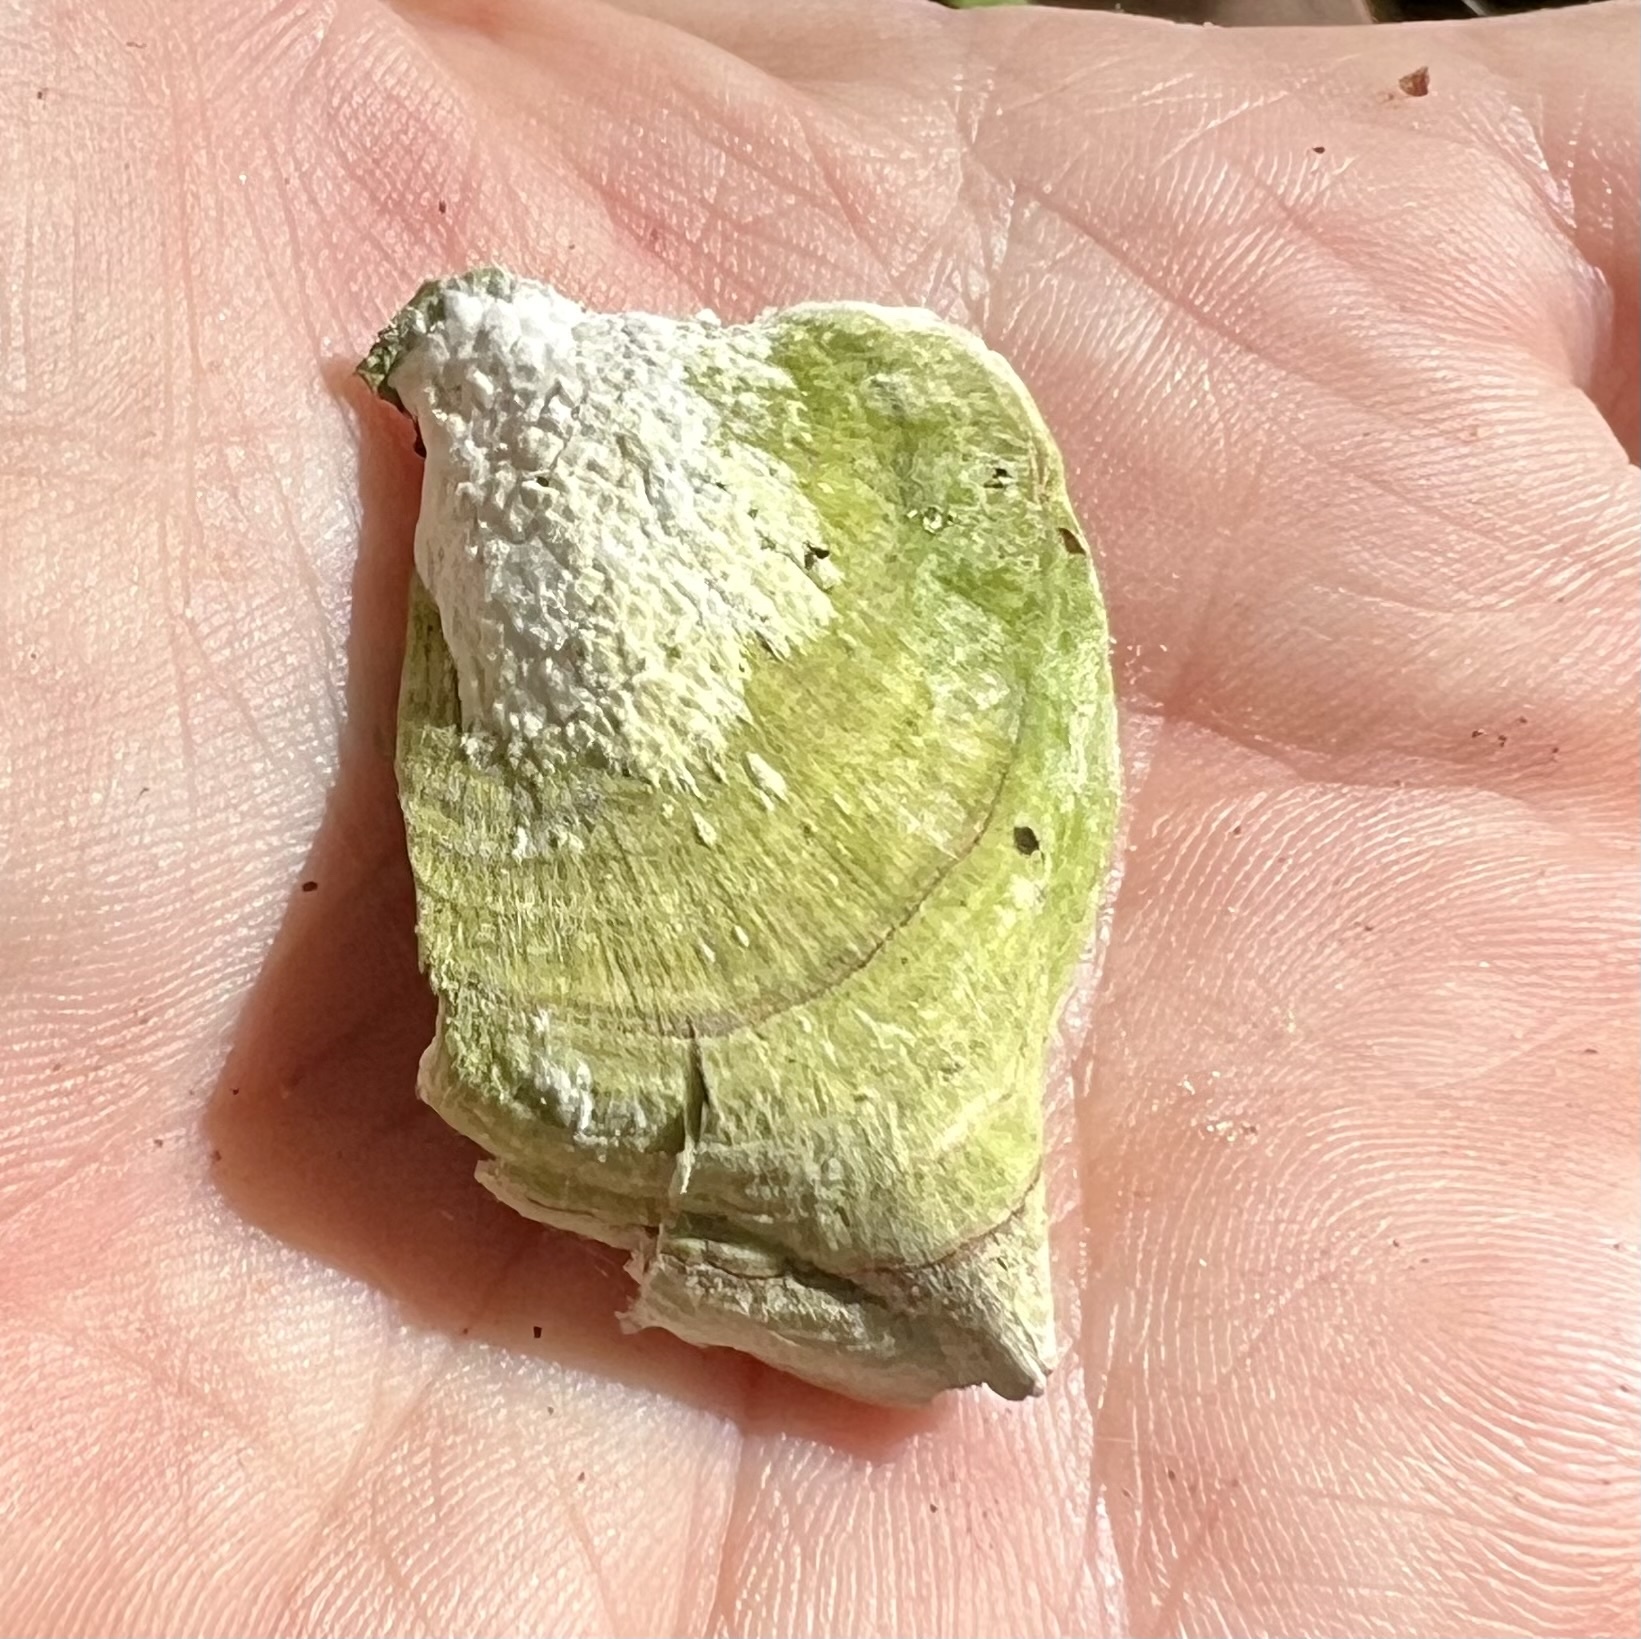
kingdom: Fungi
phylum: Basidiomycota
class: Agaricomycetes
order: Hymenochaetales
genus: Trichaptum
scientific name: Trichaptum biforme
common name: Violet-toothed polypore
